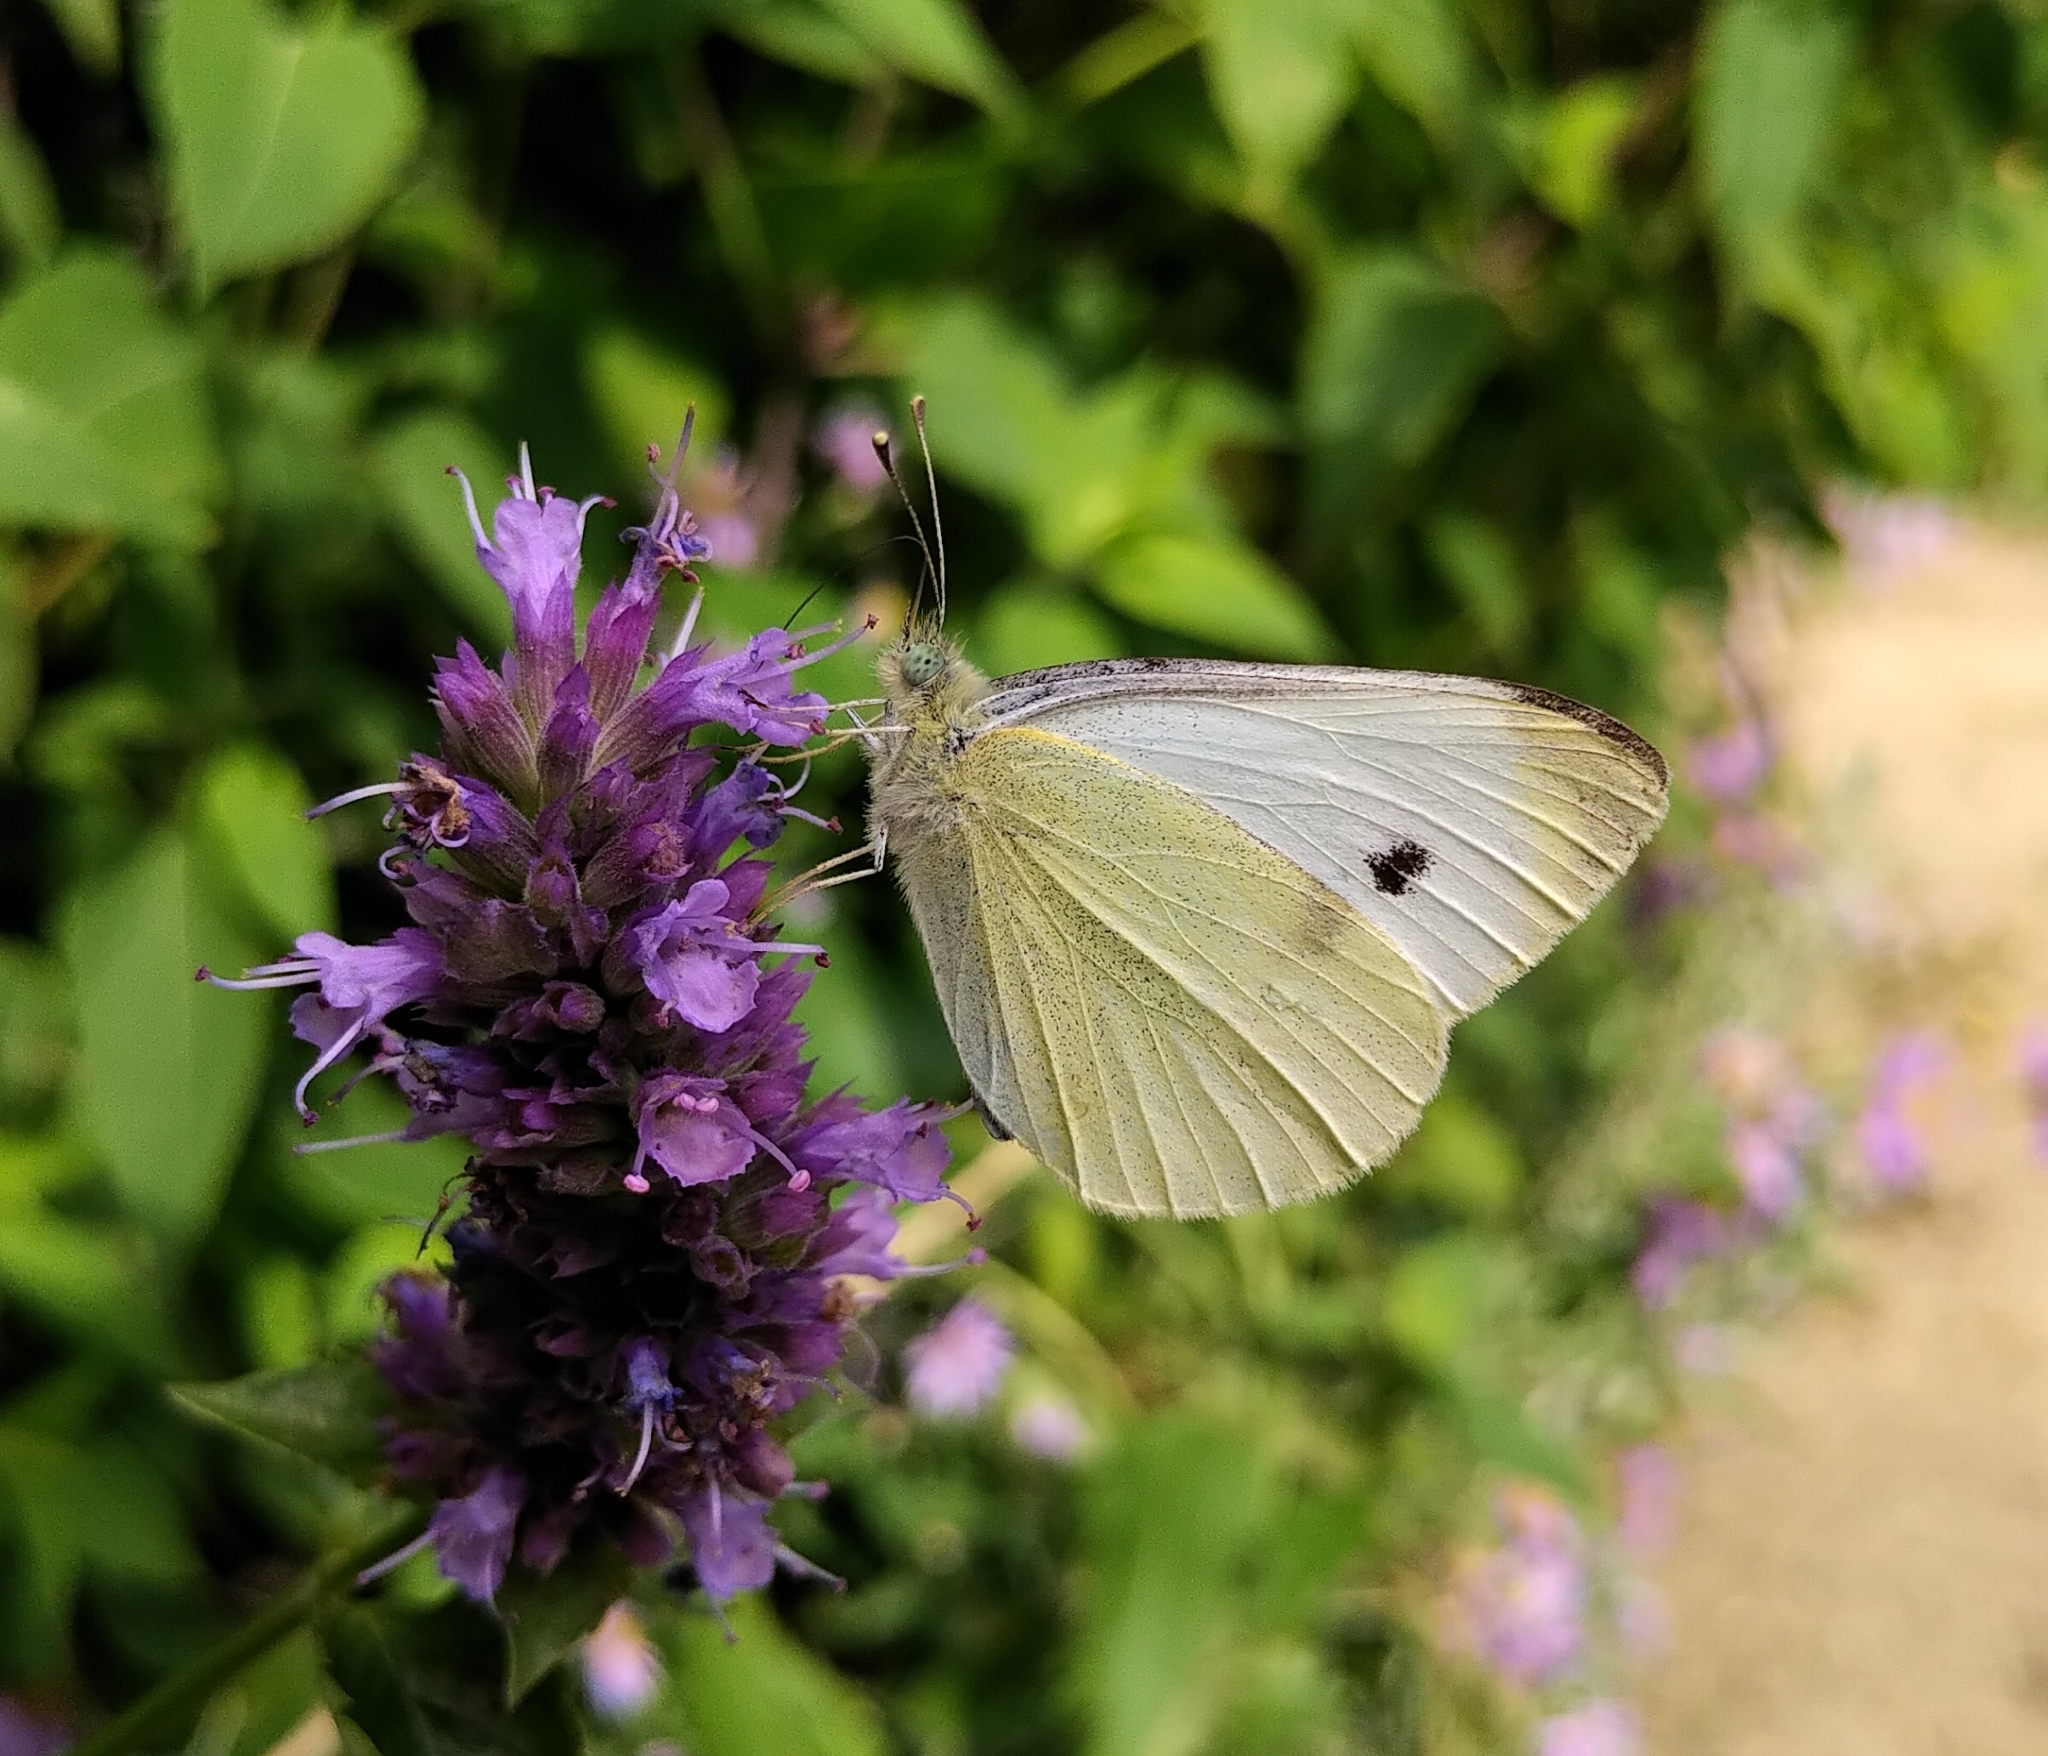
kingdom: Animalia
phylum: Arthropoda
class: Insecta
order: Lepidoptera
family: Pieridae
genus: Pieris
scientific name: Pieris rapae
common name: Small white
